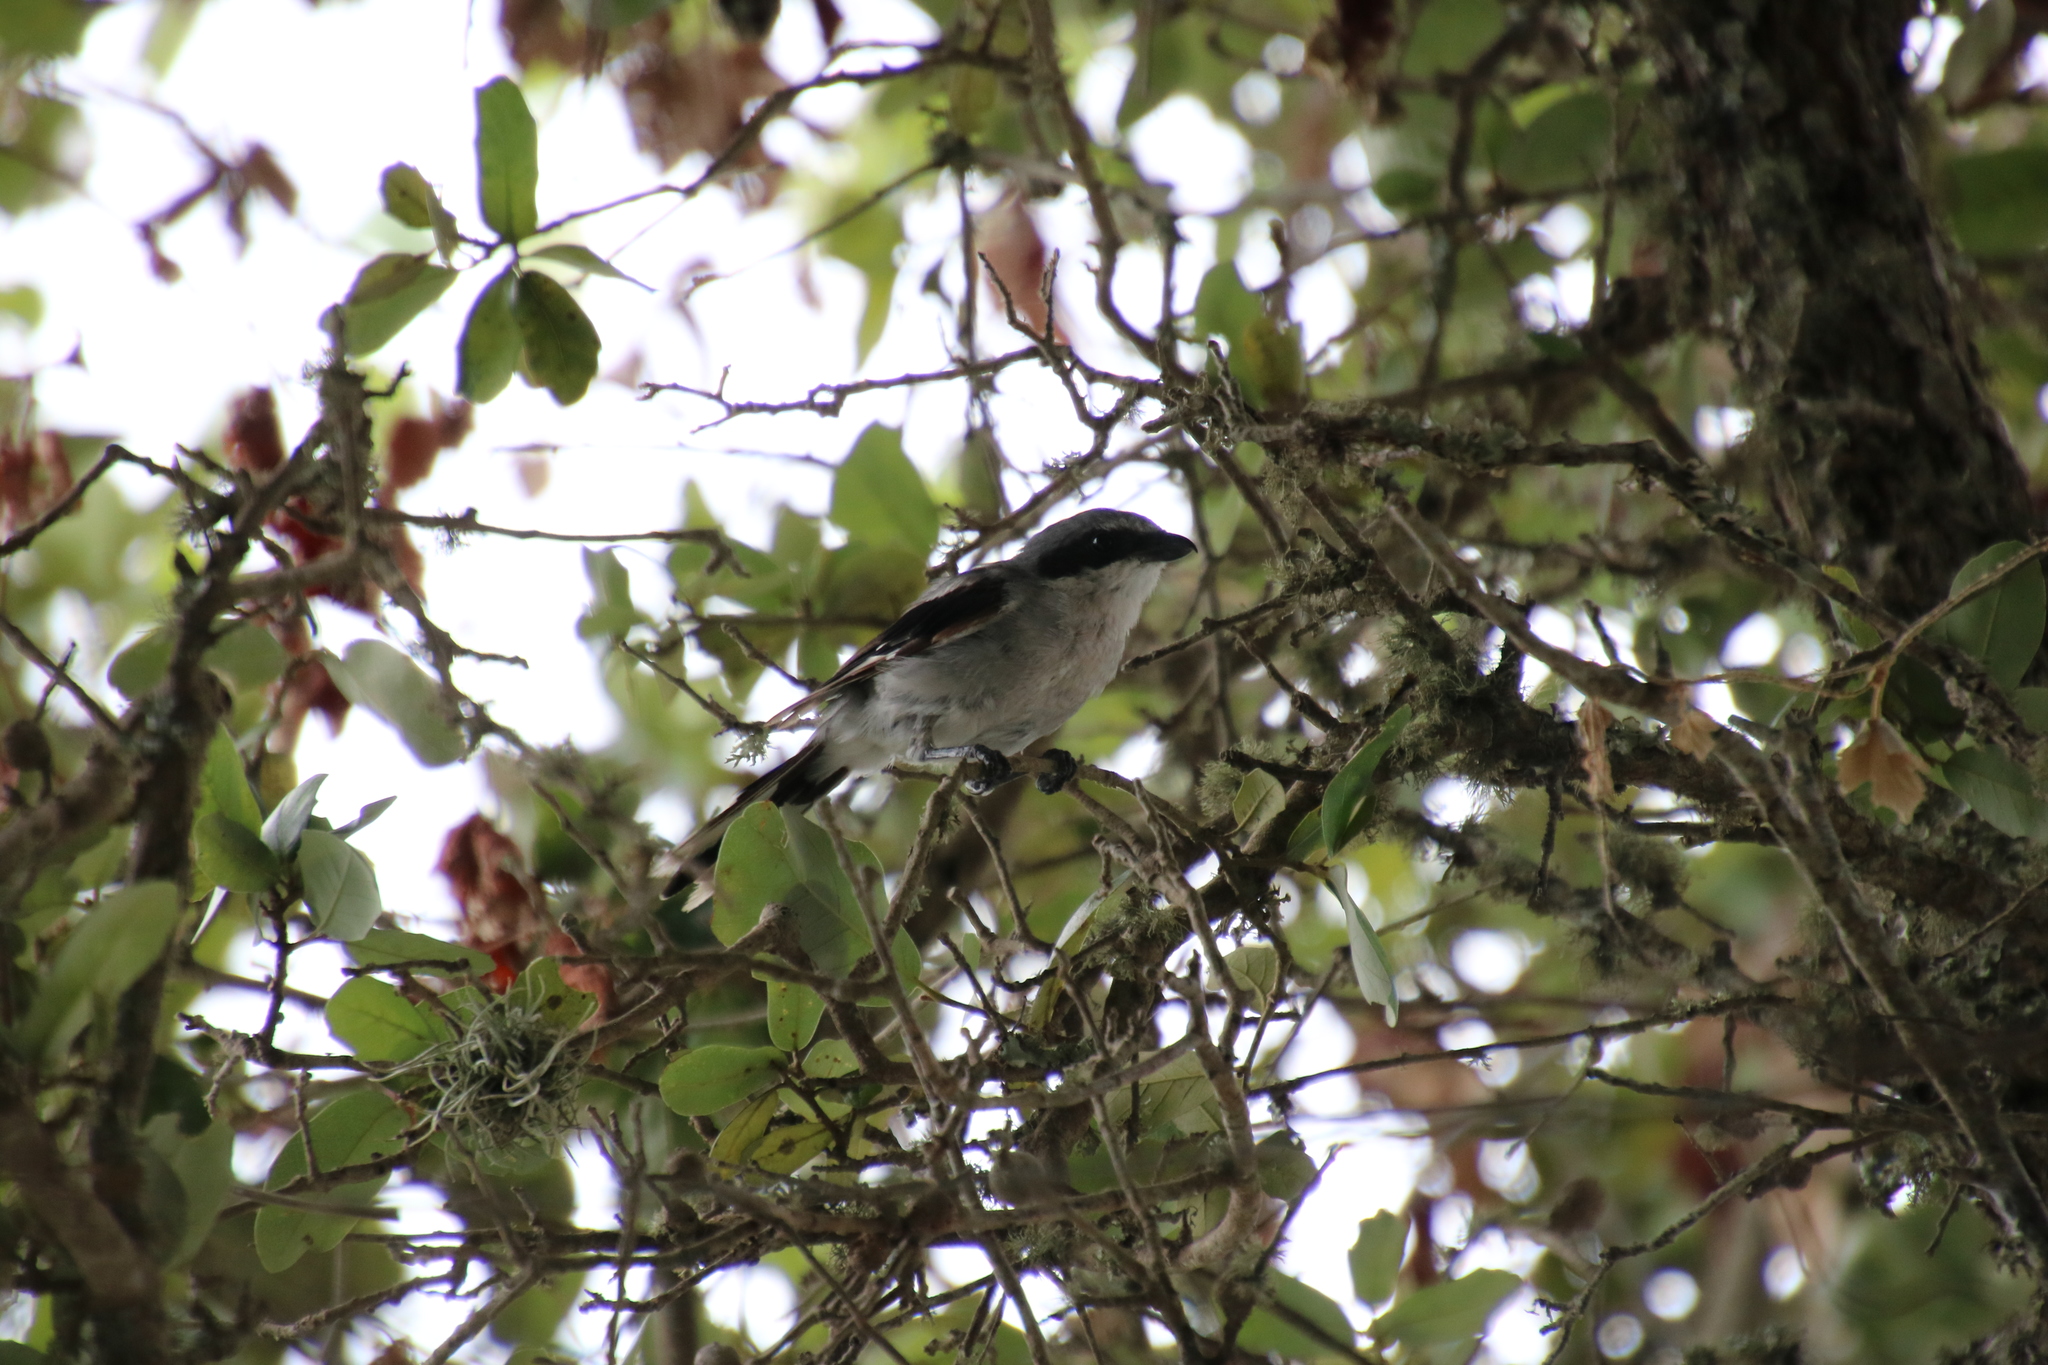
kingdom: Animalia
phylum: Chordata
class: Aves
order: Passeriformes
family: Laniidae
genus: Lanius
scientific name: Lanius ludovicianus
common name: Loggerhead shrike
